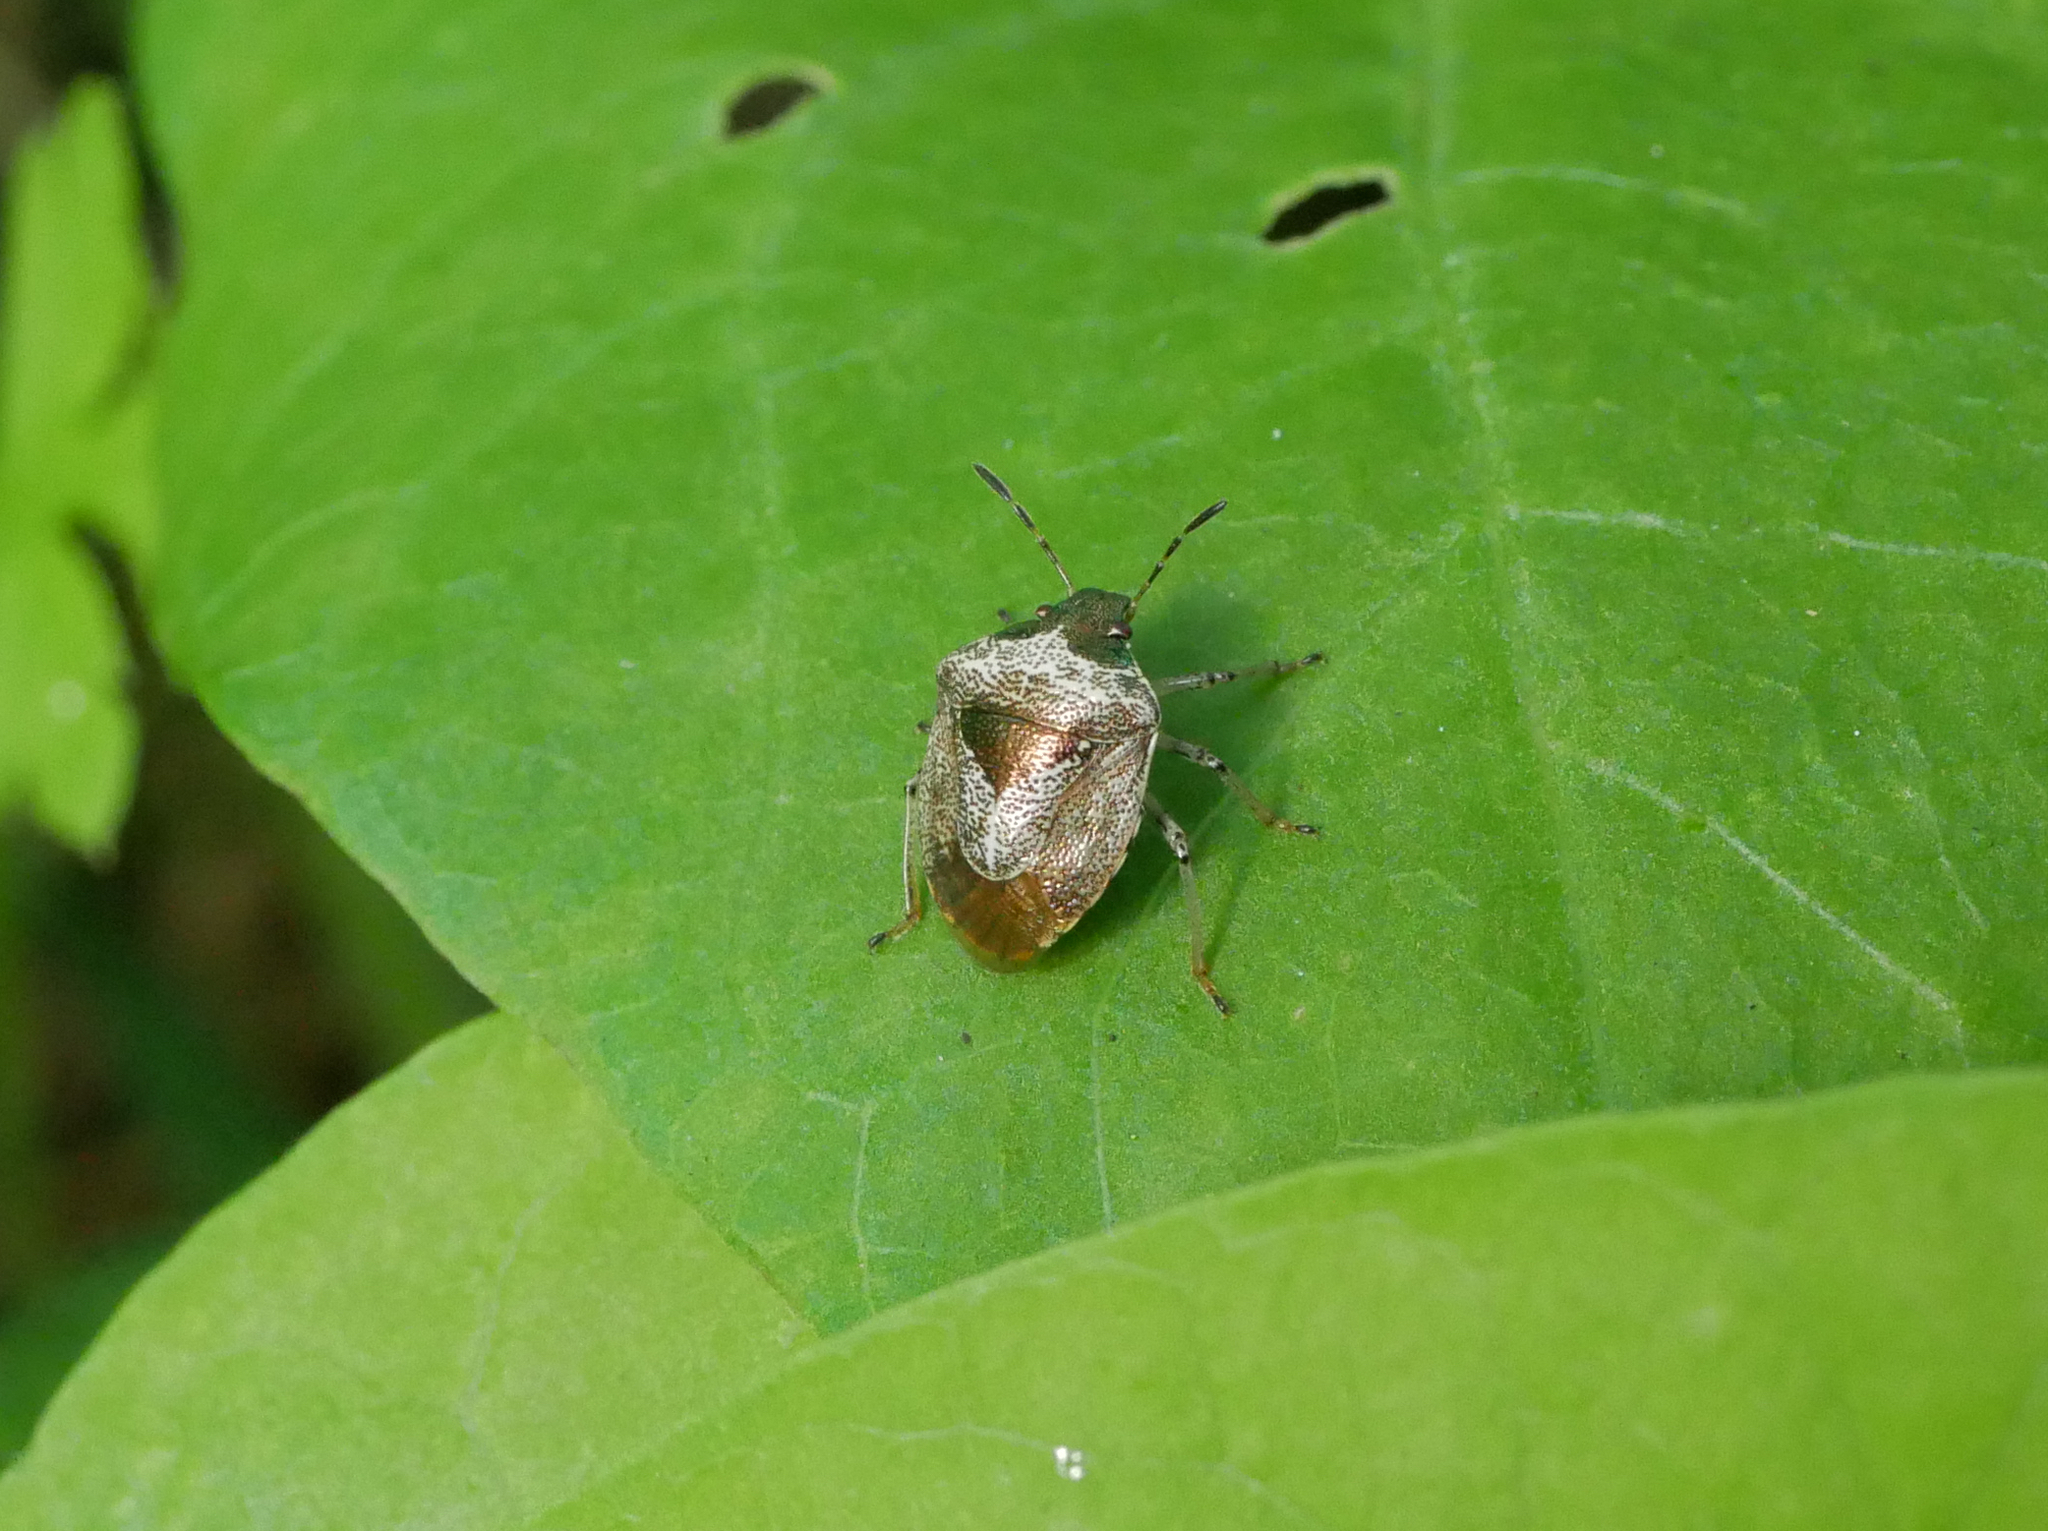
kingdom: Animalia
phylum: Arthropoda
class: Insecta
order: Hemiptera
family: Pentatomidae
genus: Eysarcoris
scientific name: Eysarcoris venustissimus
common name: Woundwort shieldbug
